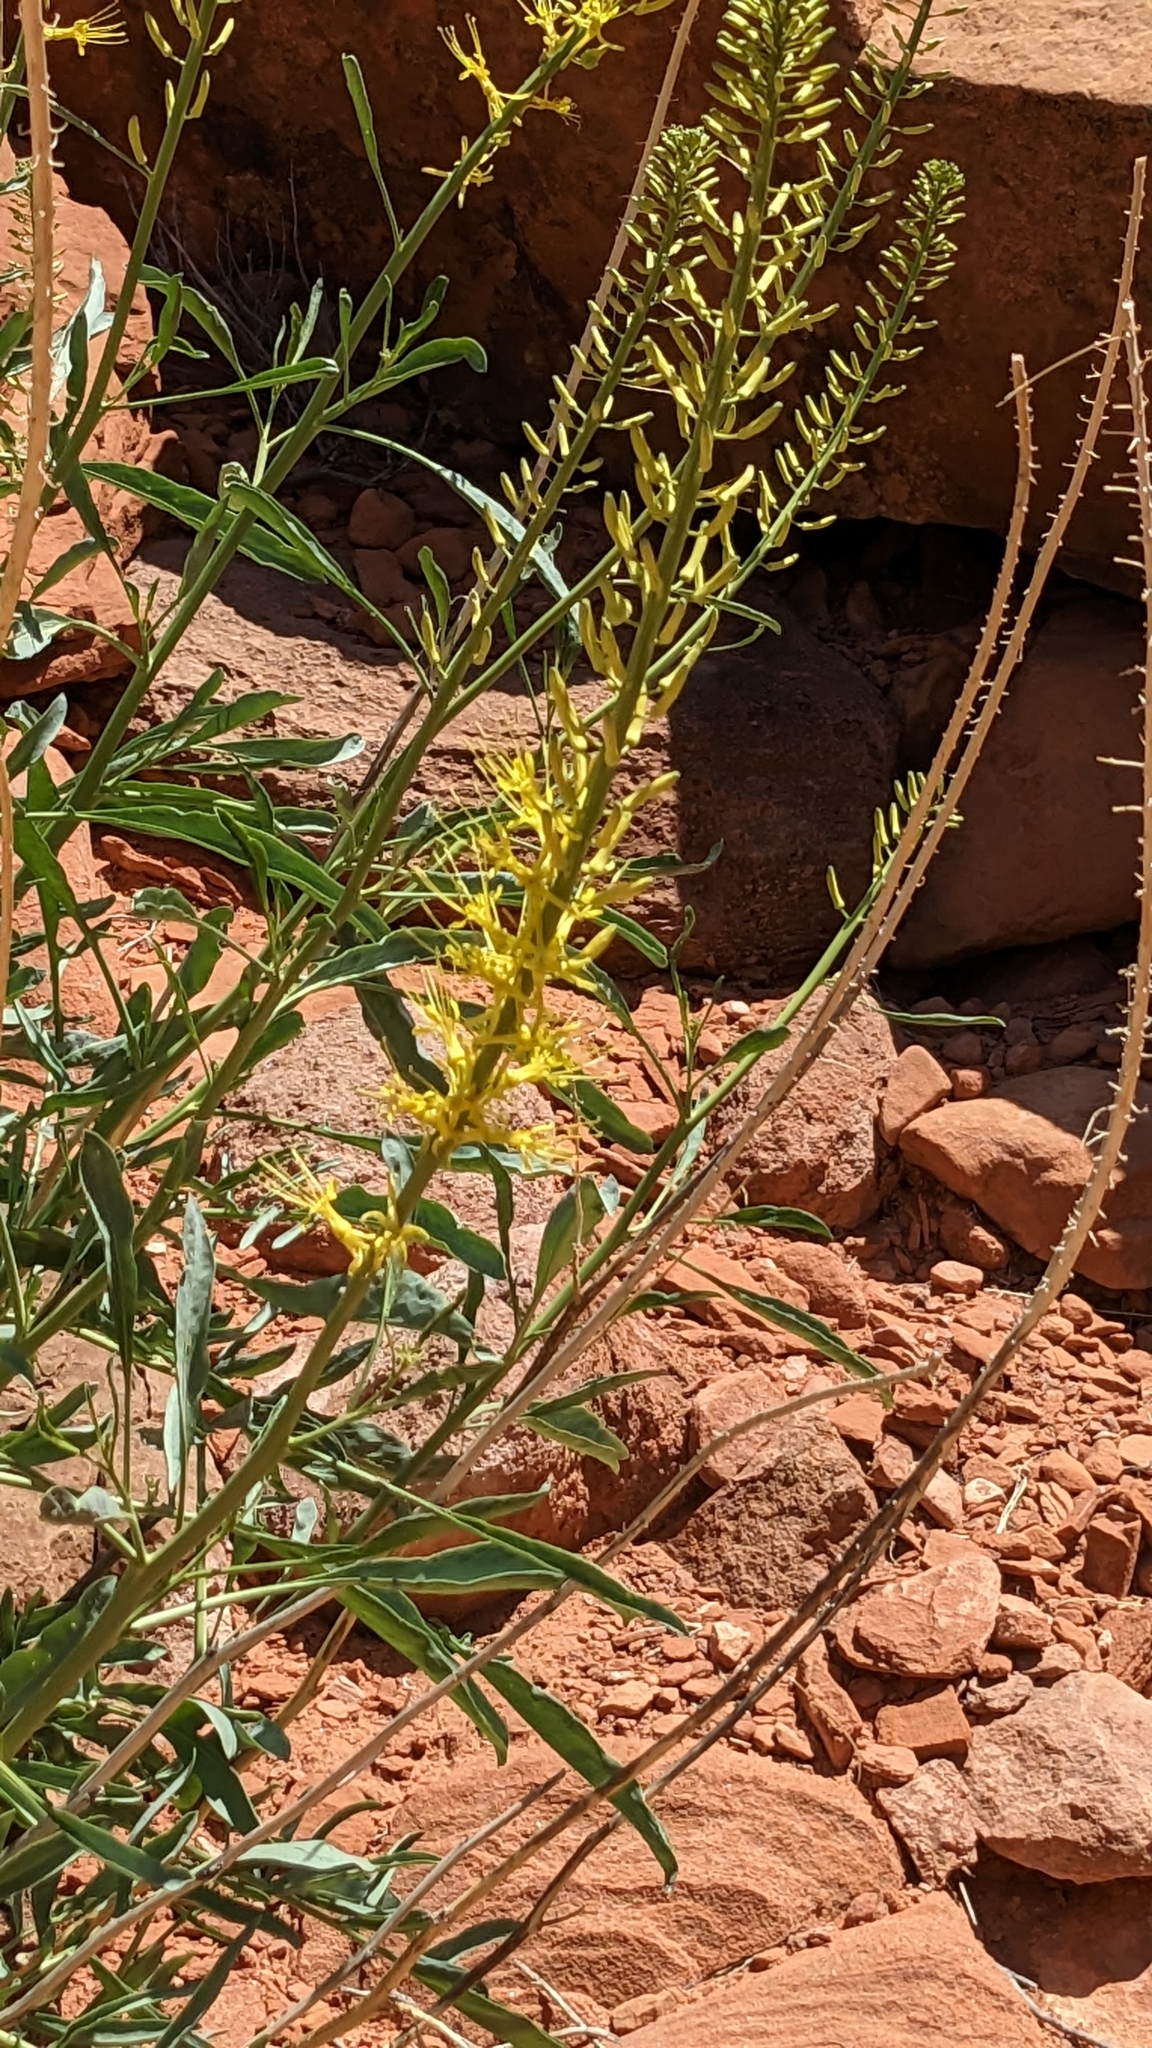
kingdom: Plantae
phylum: Tracheophyta
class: Magnoliopsida
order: Brassicales
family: Brassicaceae
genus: Stanleya
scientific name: Stanleya pinnata
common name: Prince's-plume
